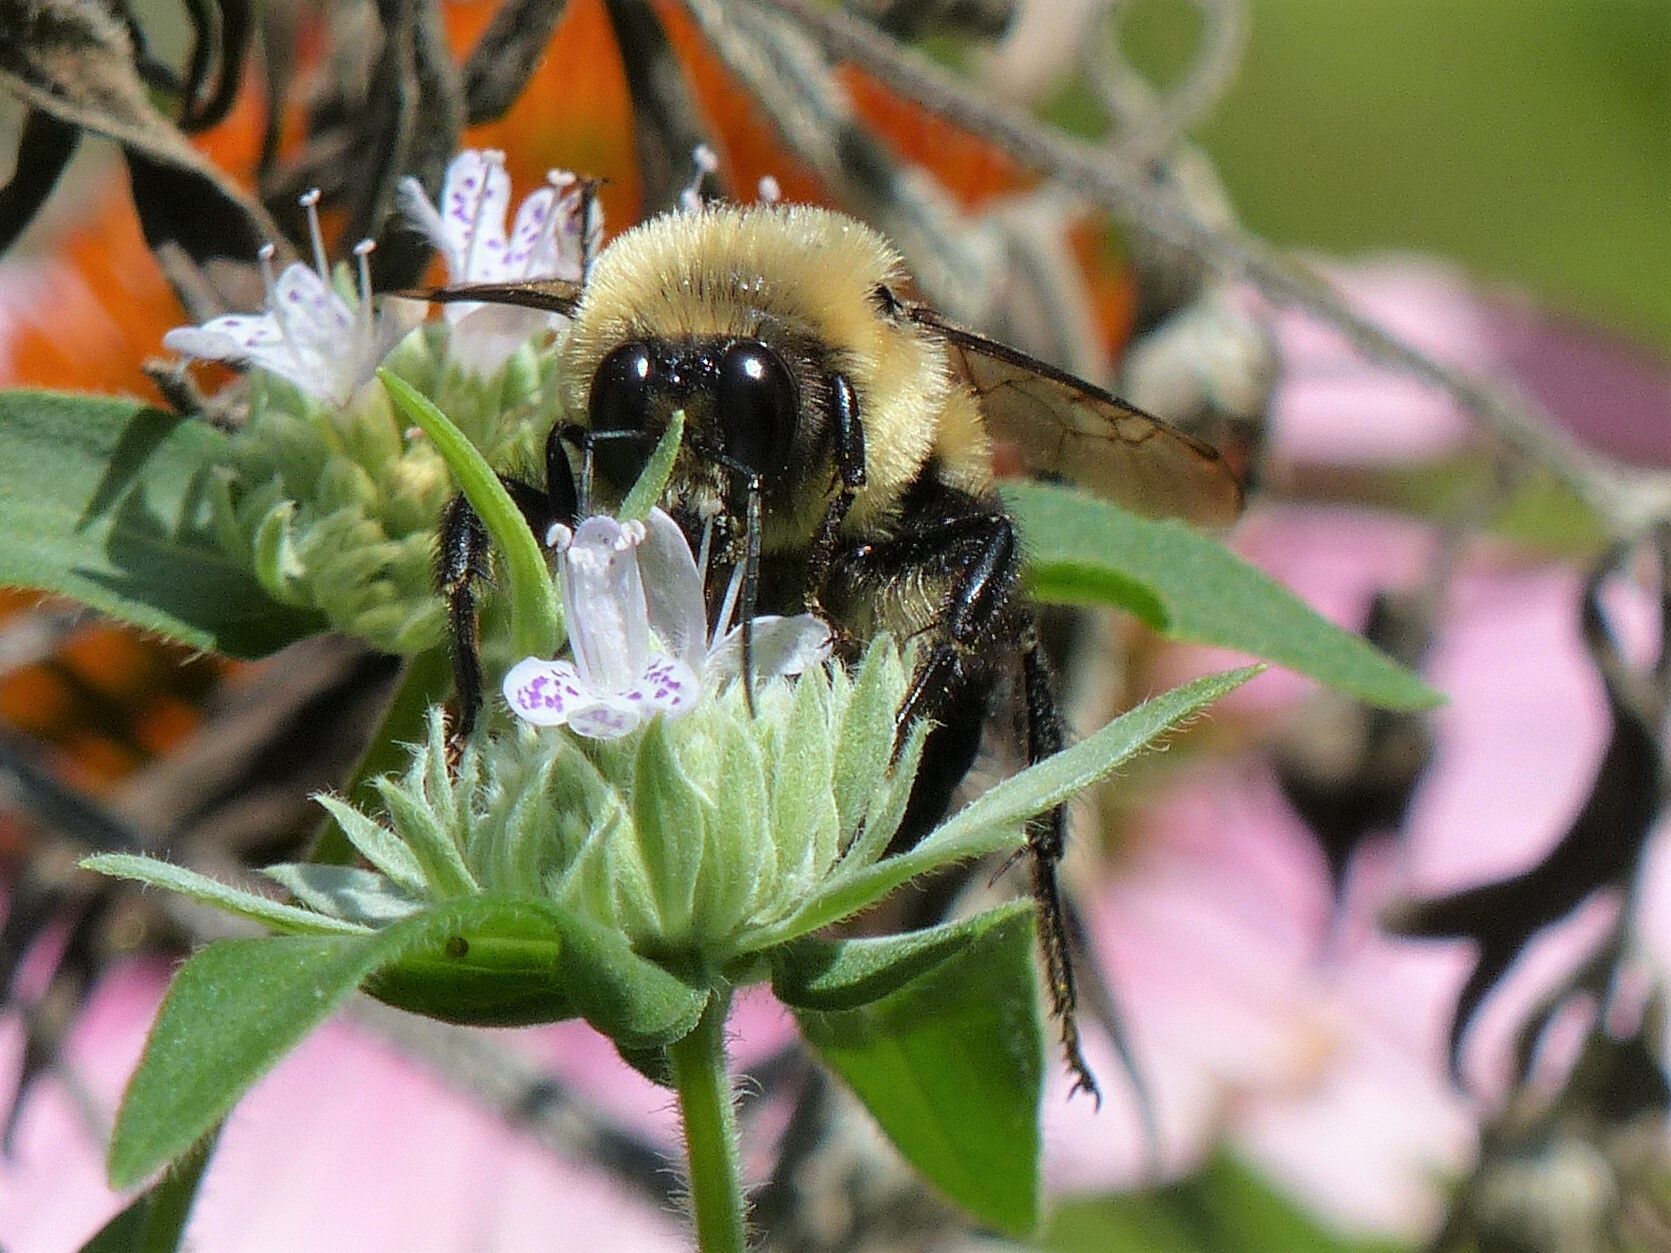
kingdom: Animalia
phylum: Arthropoda
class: Insecta
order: Hymenoptera
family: Apidae
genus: Bombus
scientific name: Bombus griseocollis
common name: Brown-belted bumble bee
